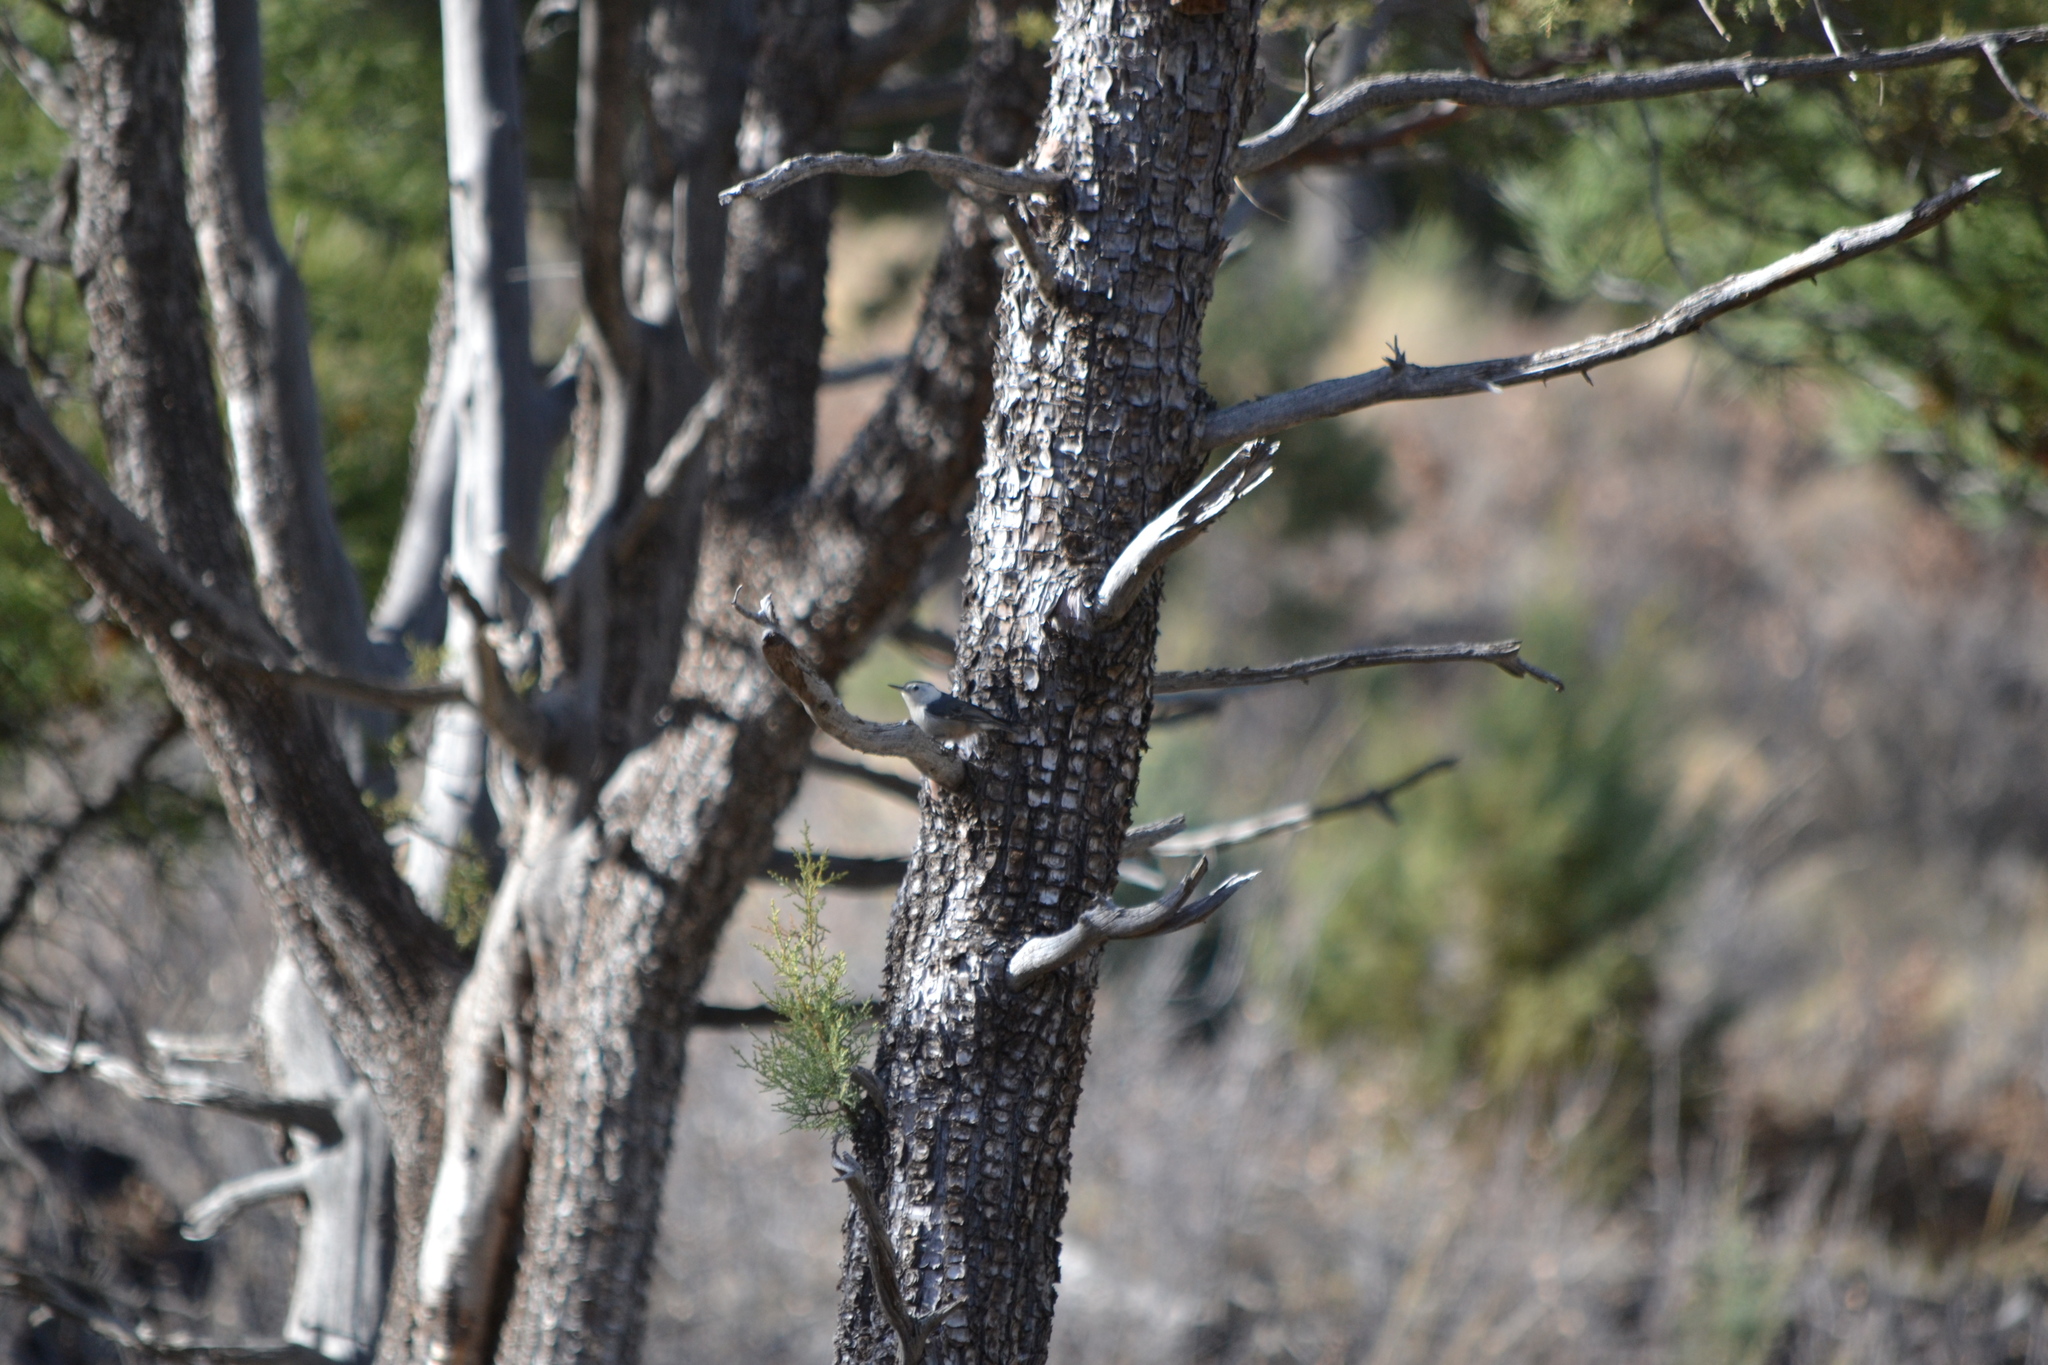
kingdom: Animalia
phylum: Chordata
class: Aves
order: Passeriformes
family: Sittidae
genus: Sitta
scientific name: Sitta carolinensis
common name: White-breasted nuthatch
